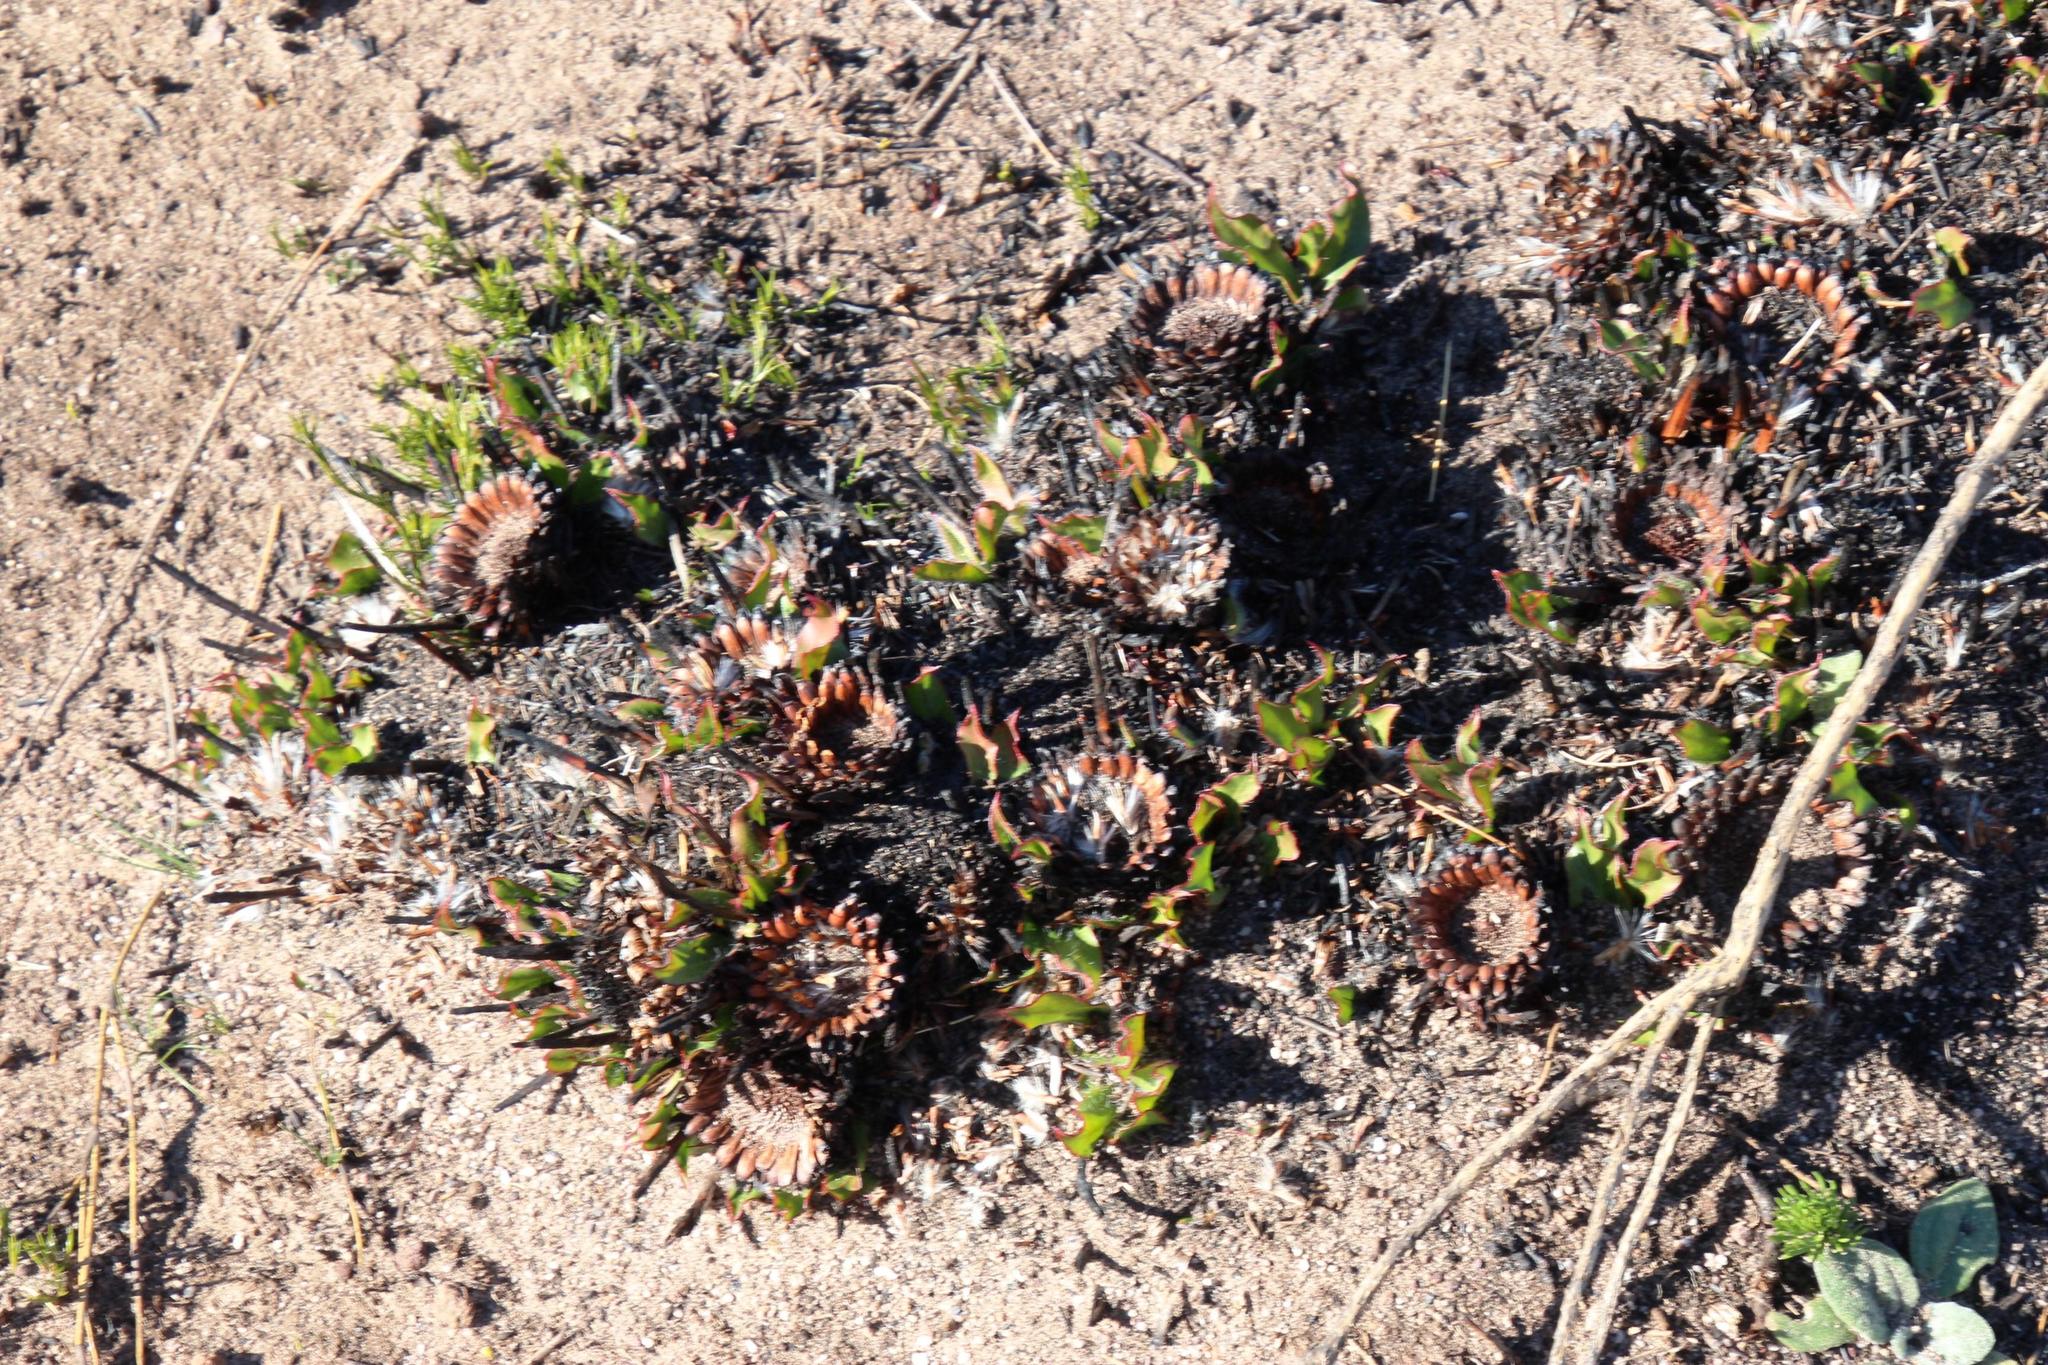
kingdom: Plantae
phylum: Tracheophyta
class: Magnoliopsida
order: Proteales
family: Proteaceae
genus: Protea
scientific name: Protea scolopendriifolia
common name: Harts-tongue-fern sugarbush
